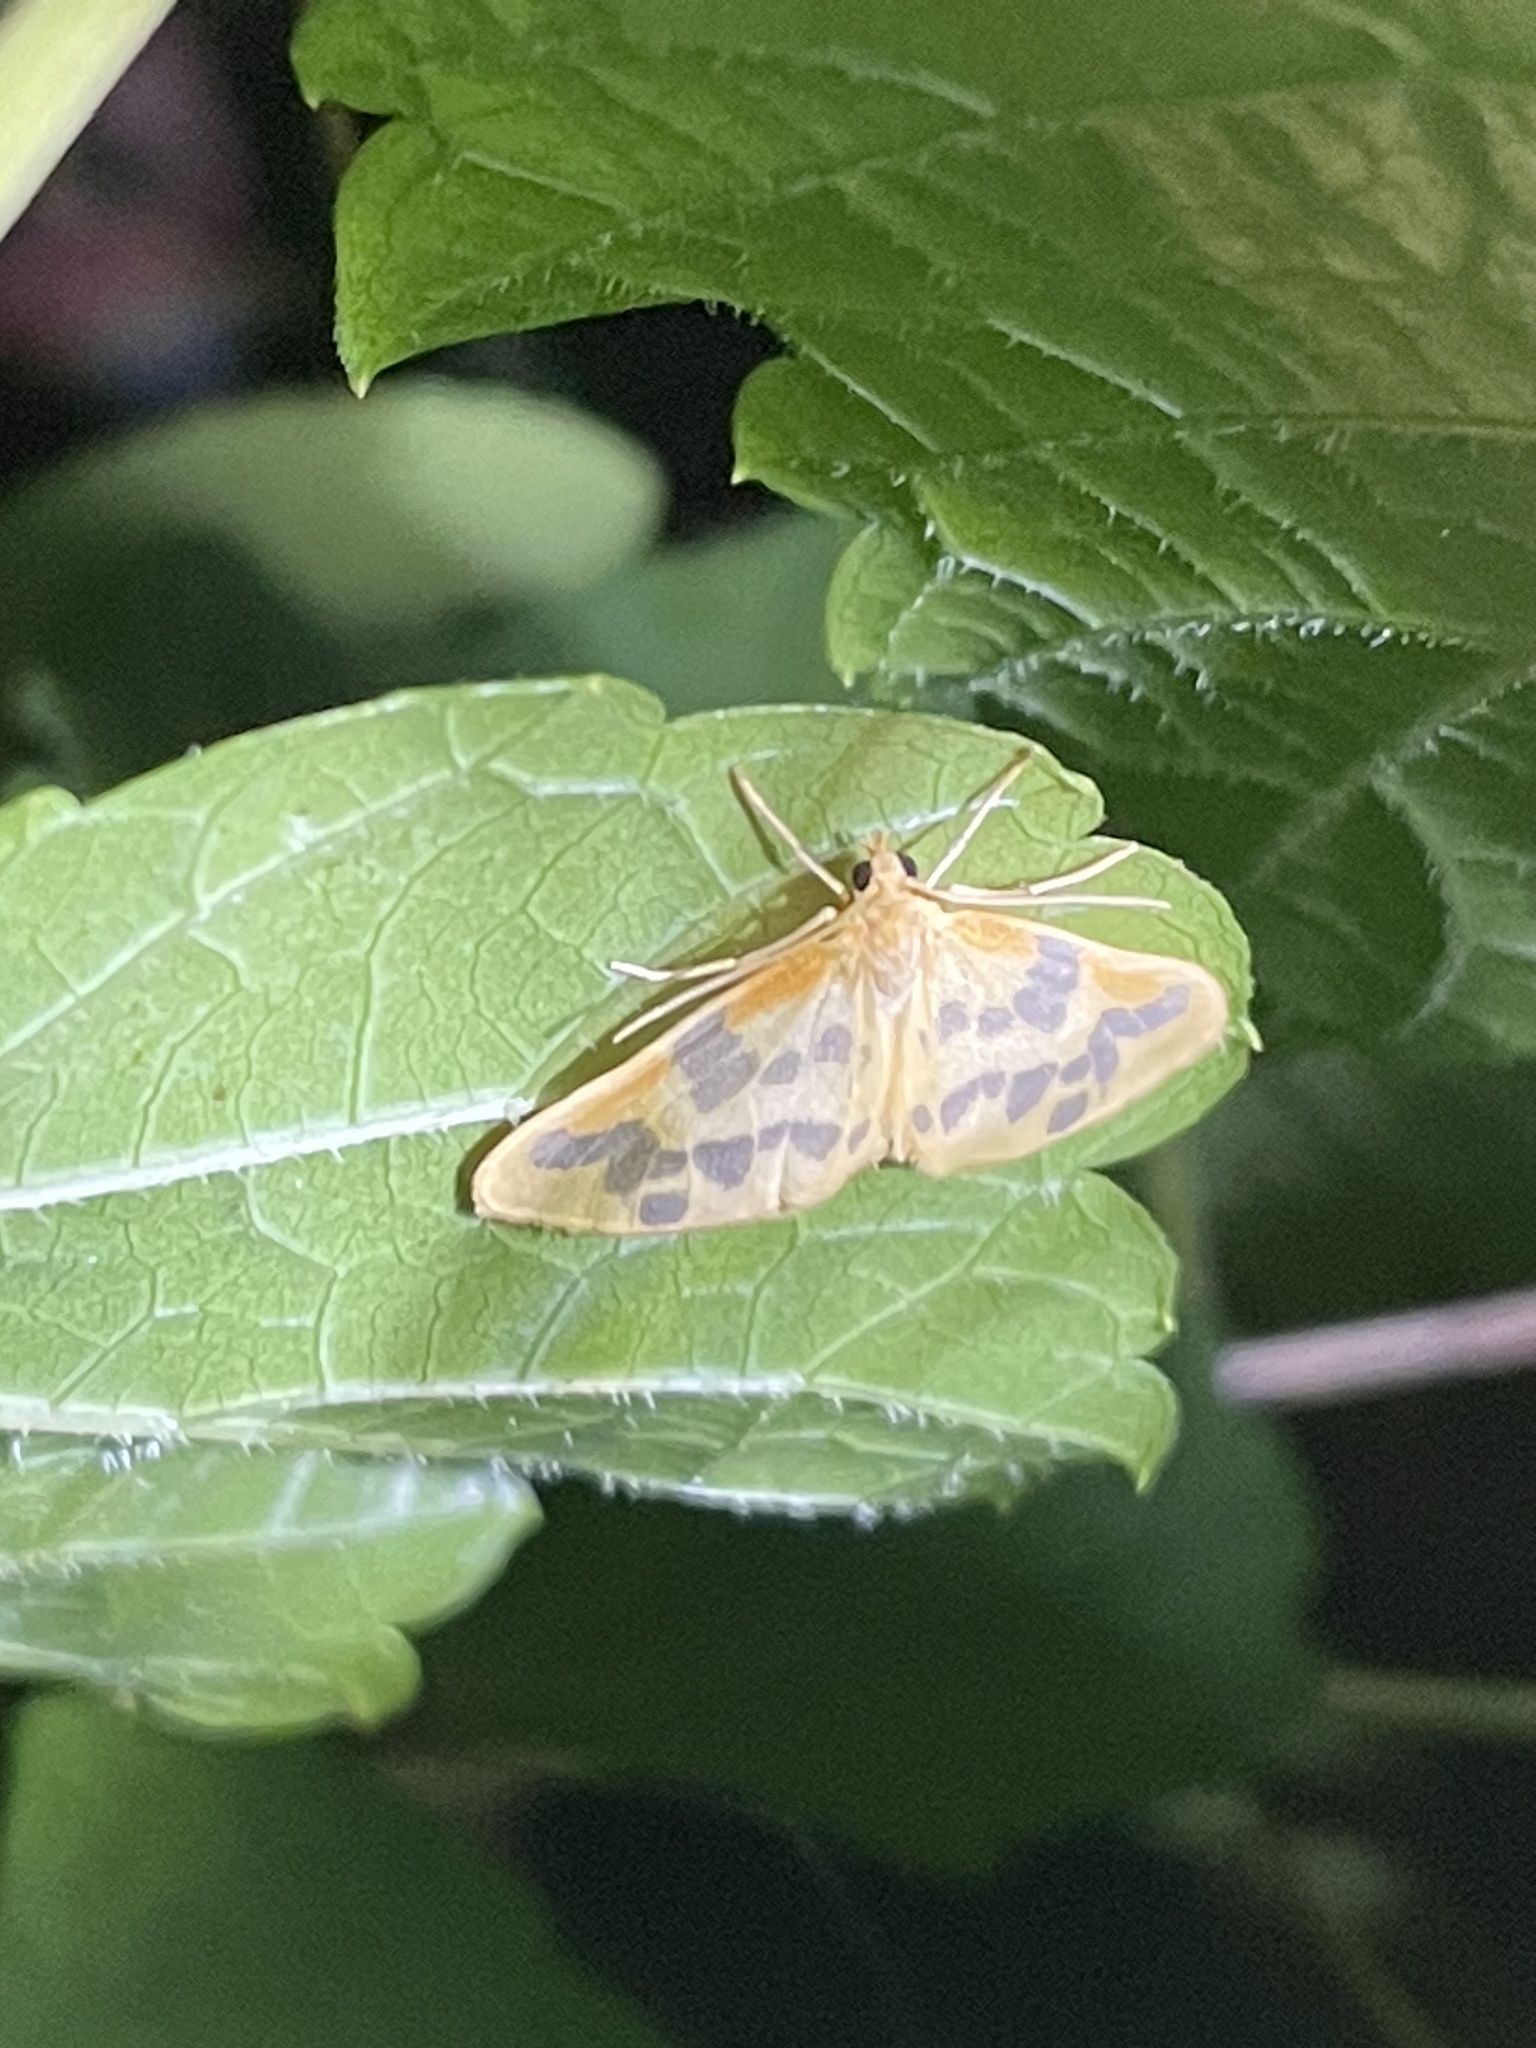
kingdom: Animalia
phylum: Arthropoda
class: Insecta
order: Lepidoptera
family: Geometridae
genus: Eubaphe
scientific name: Eubaphe mendica
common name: Beggar
